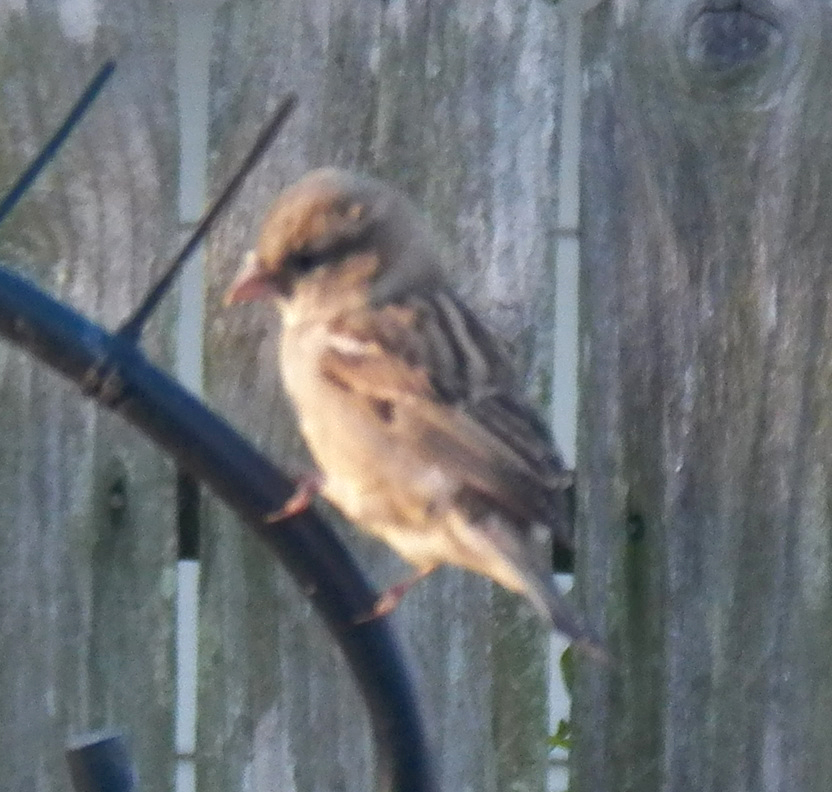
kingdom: Animalia
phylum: Chordata
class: Aves
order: Passeriformes
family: Passeridae
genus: Passer
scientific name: Passer domesticus
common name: House sparrow
